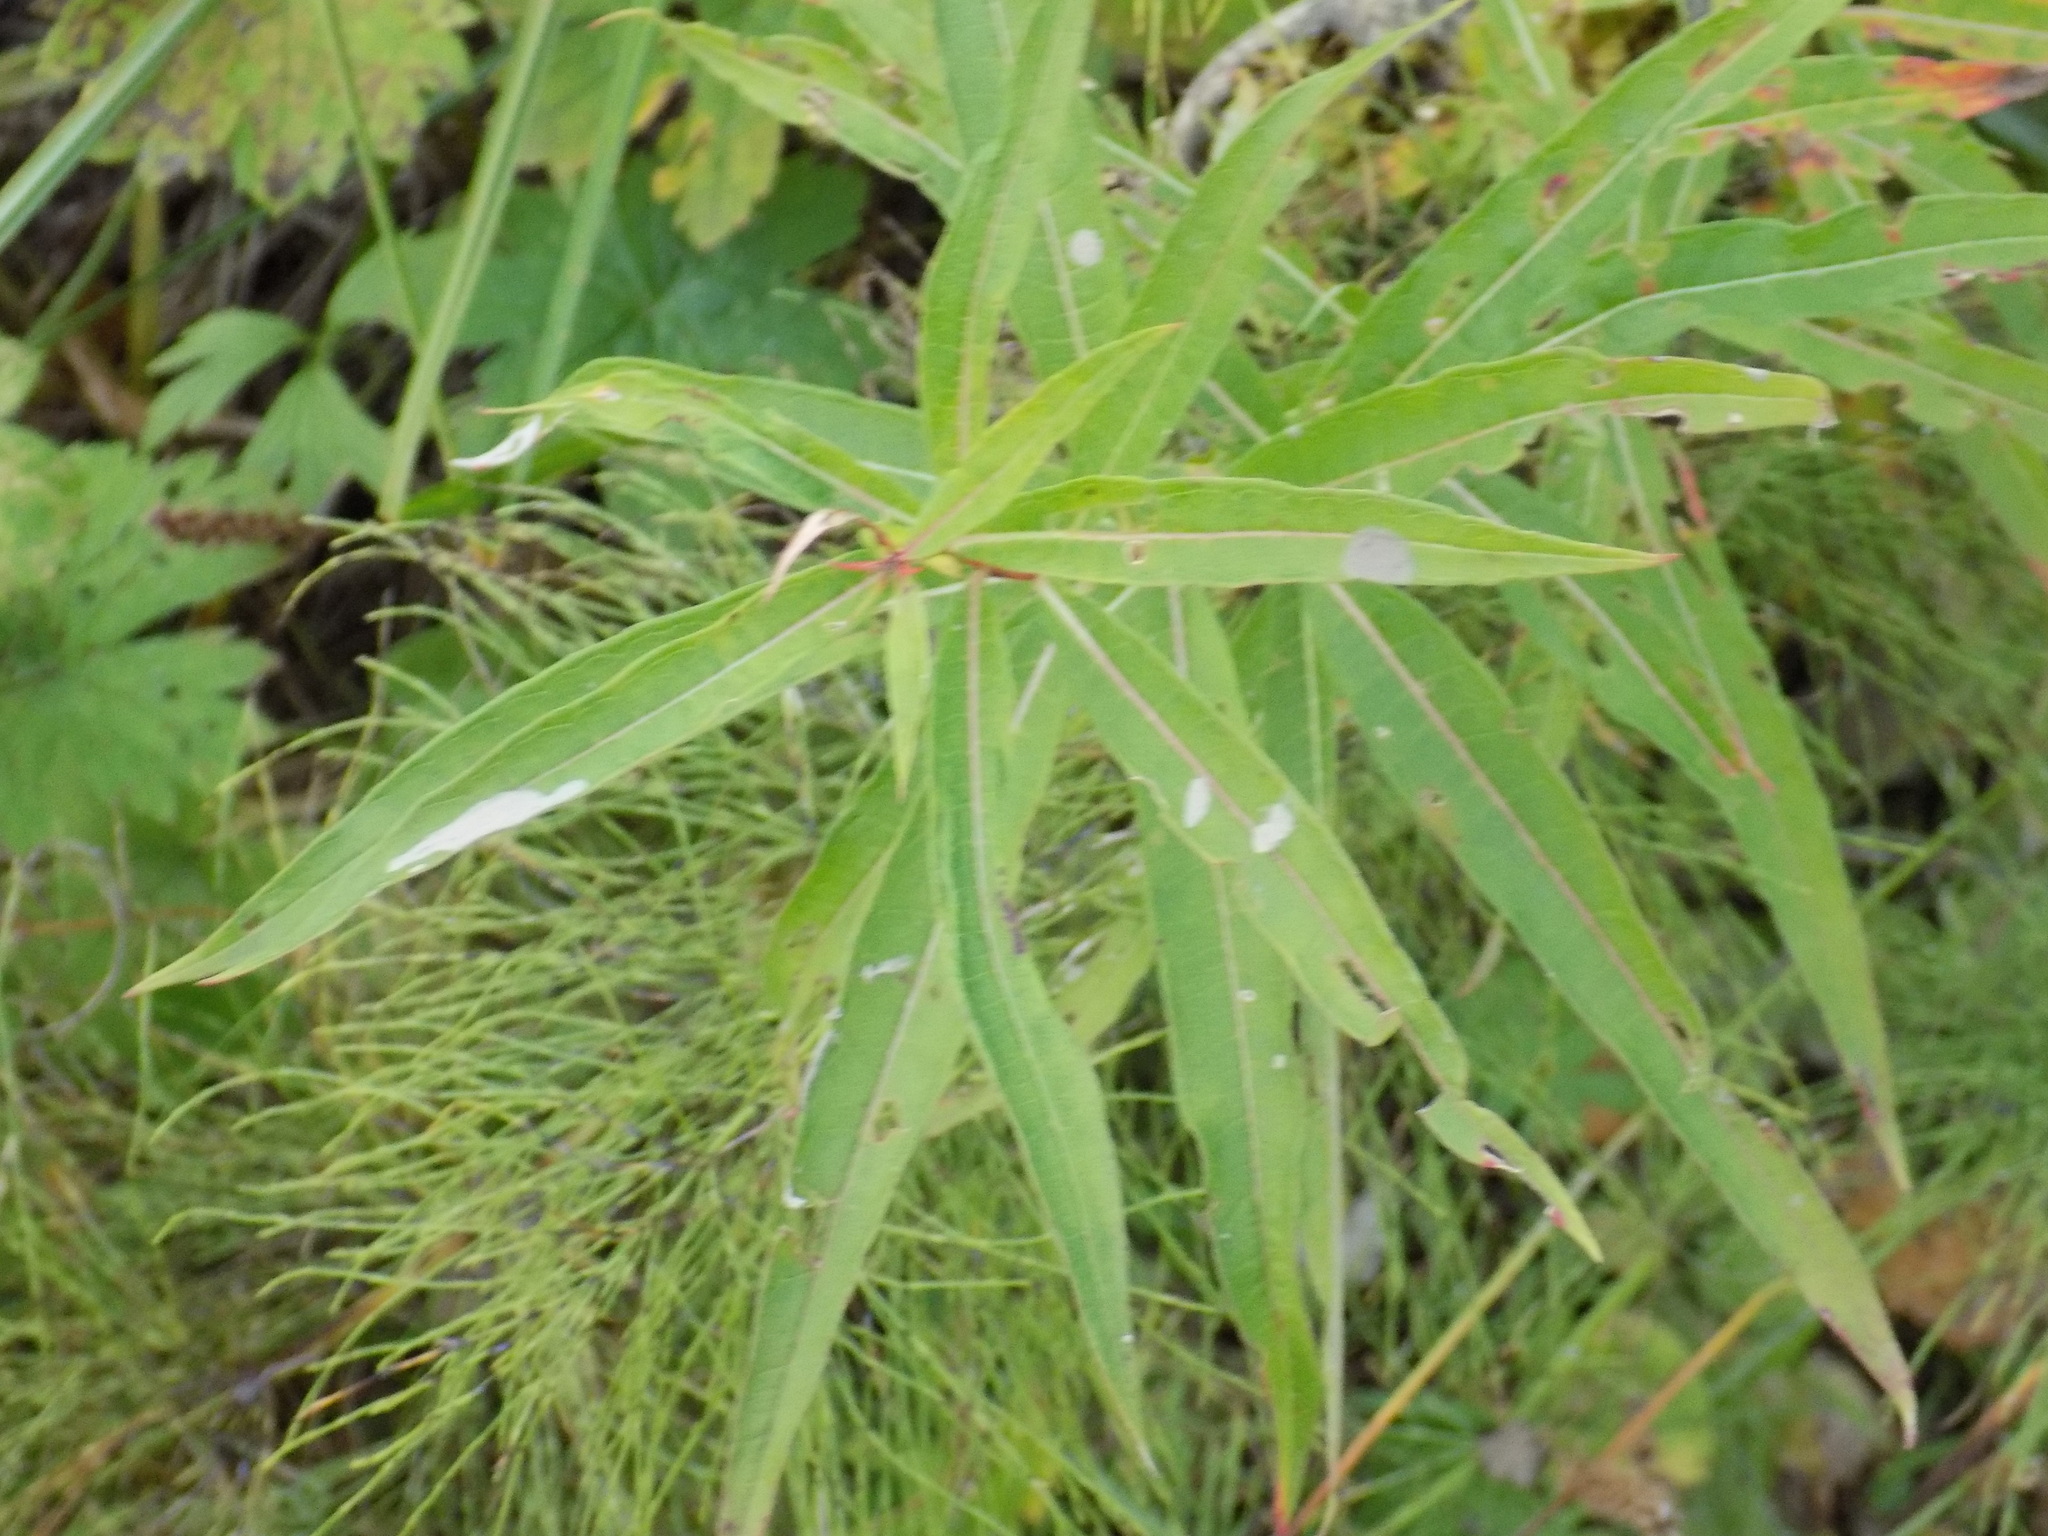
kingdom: Plantae
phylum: Tracheophyta
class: Magnoliopsida
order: Myrtales
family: Onagraceae
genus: Chamaenerion
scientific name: Chamaenerion angustifolium
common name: Fireweed
